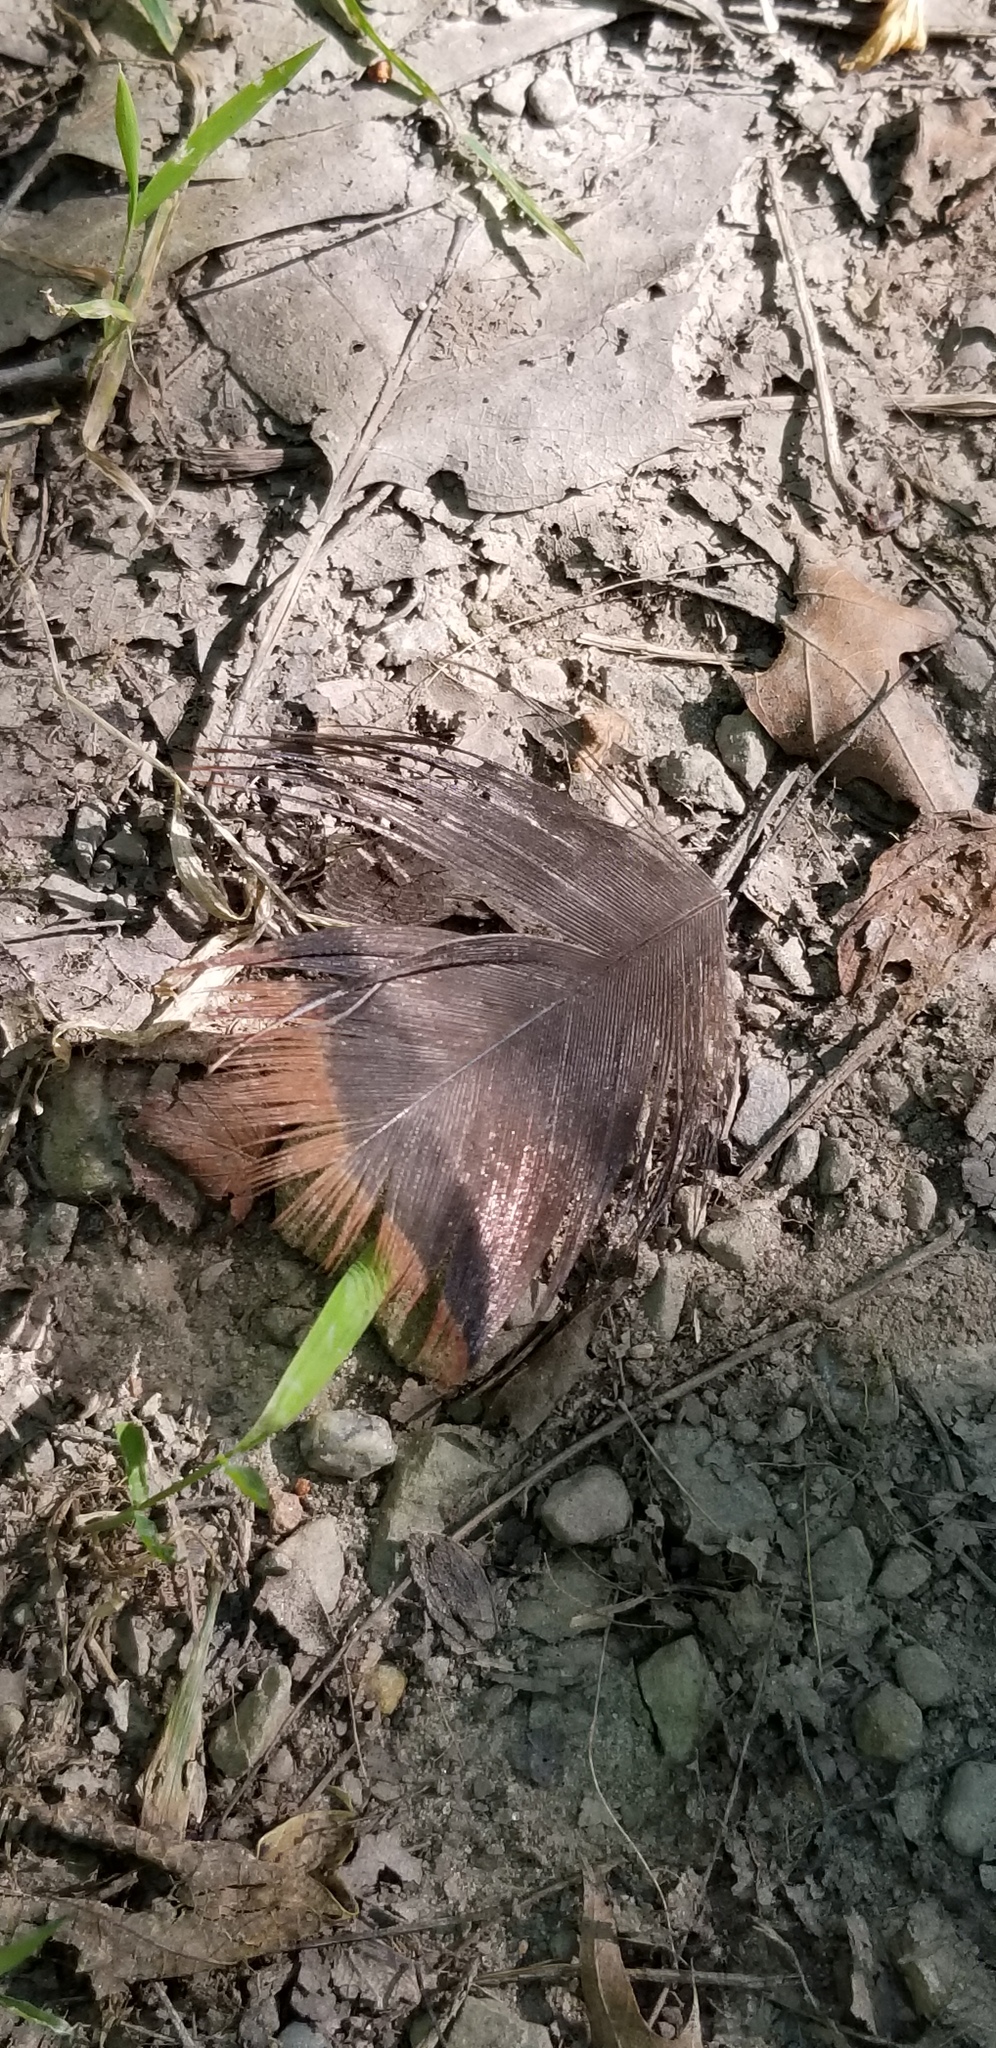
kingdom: Animalia
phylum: Chordata
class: Aves
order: Galliformes
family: Phasianidae
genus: Meleagris
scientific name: Meleagris gallopavo
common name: Wild turkey
